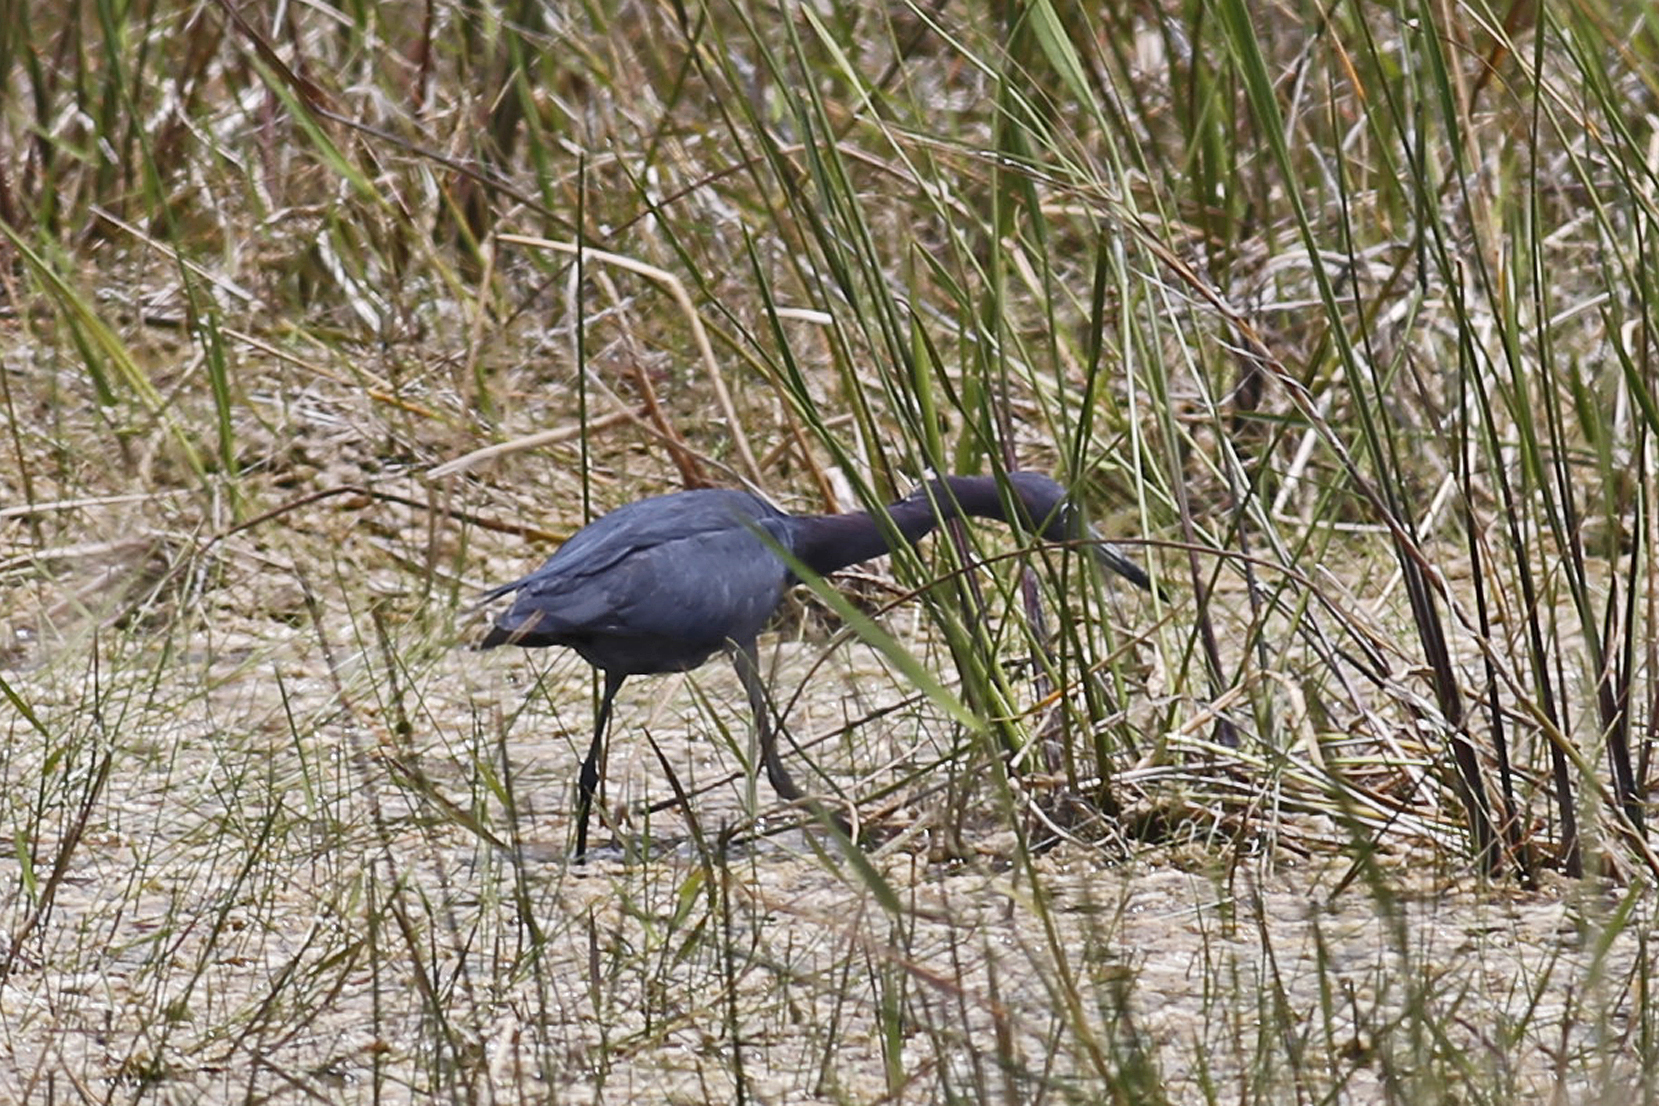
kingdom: Animalia
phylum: Chordata
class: Aves
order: Pelecaniformes
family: Ardeidae
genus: Egretta
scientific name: Egretta caerulea
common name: Little blue heron
